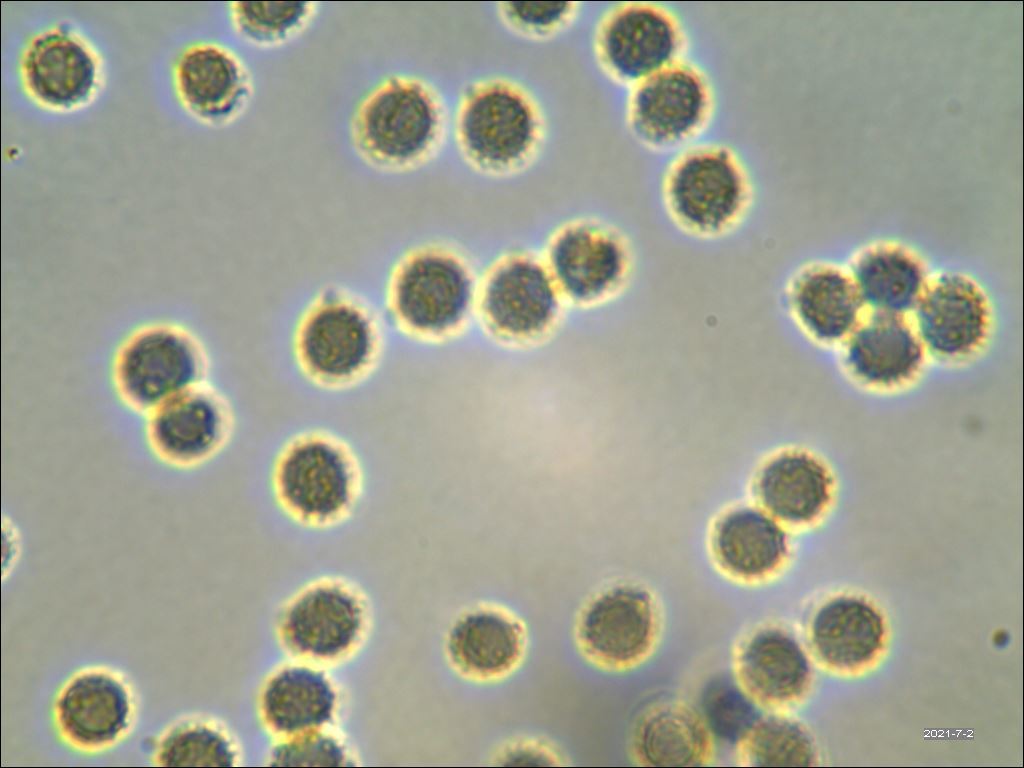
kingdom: Fungi
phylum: Basidiomycota
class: Agaricomycetes
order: Russulales
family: Russulaceae
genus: Russula
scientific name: Russula parvovirescens
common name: Blue-green cracking russula
